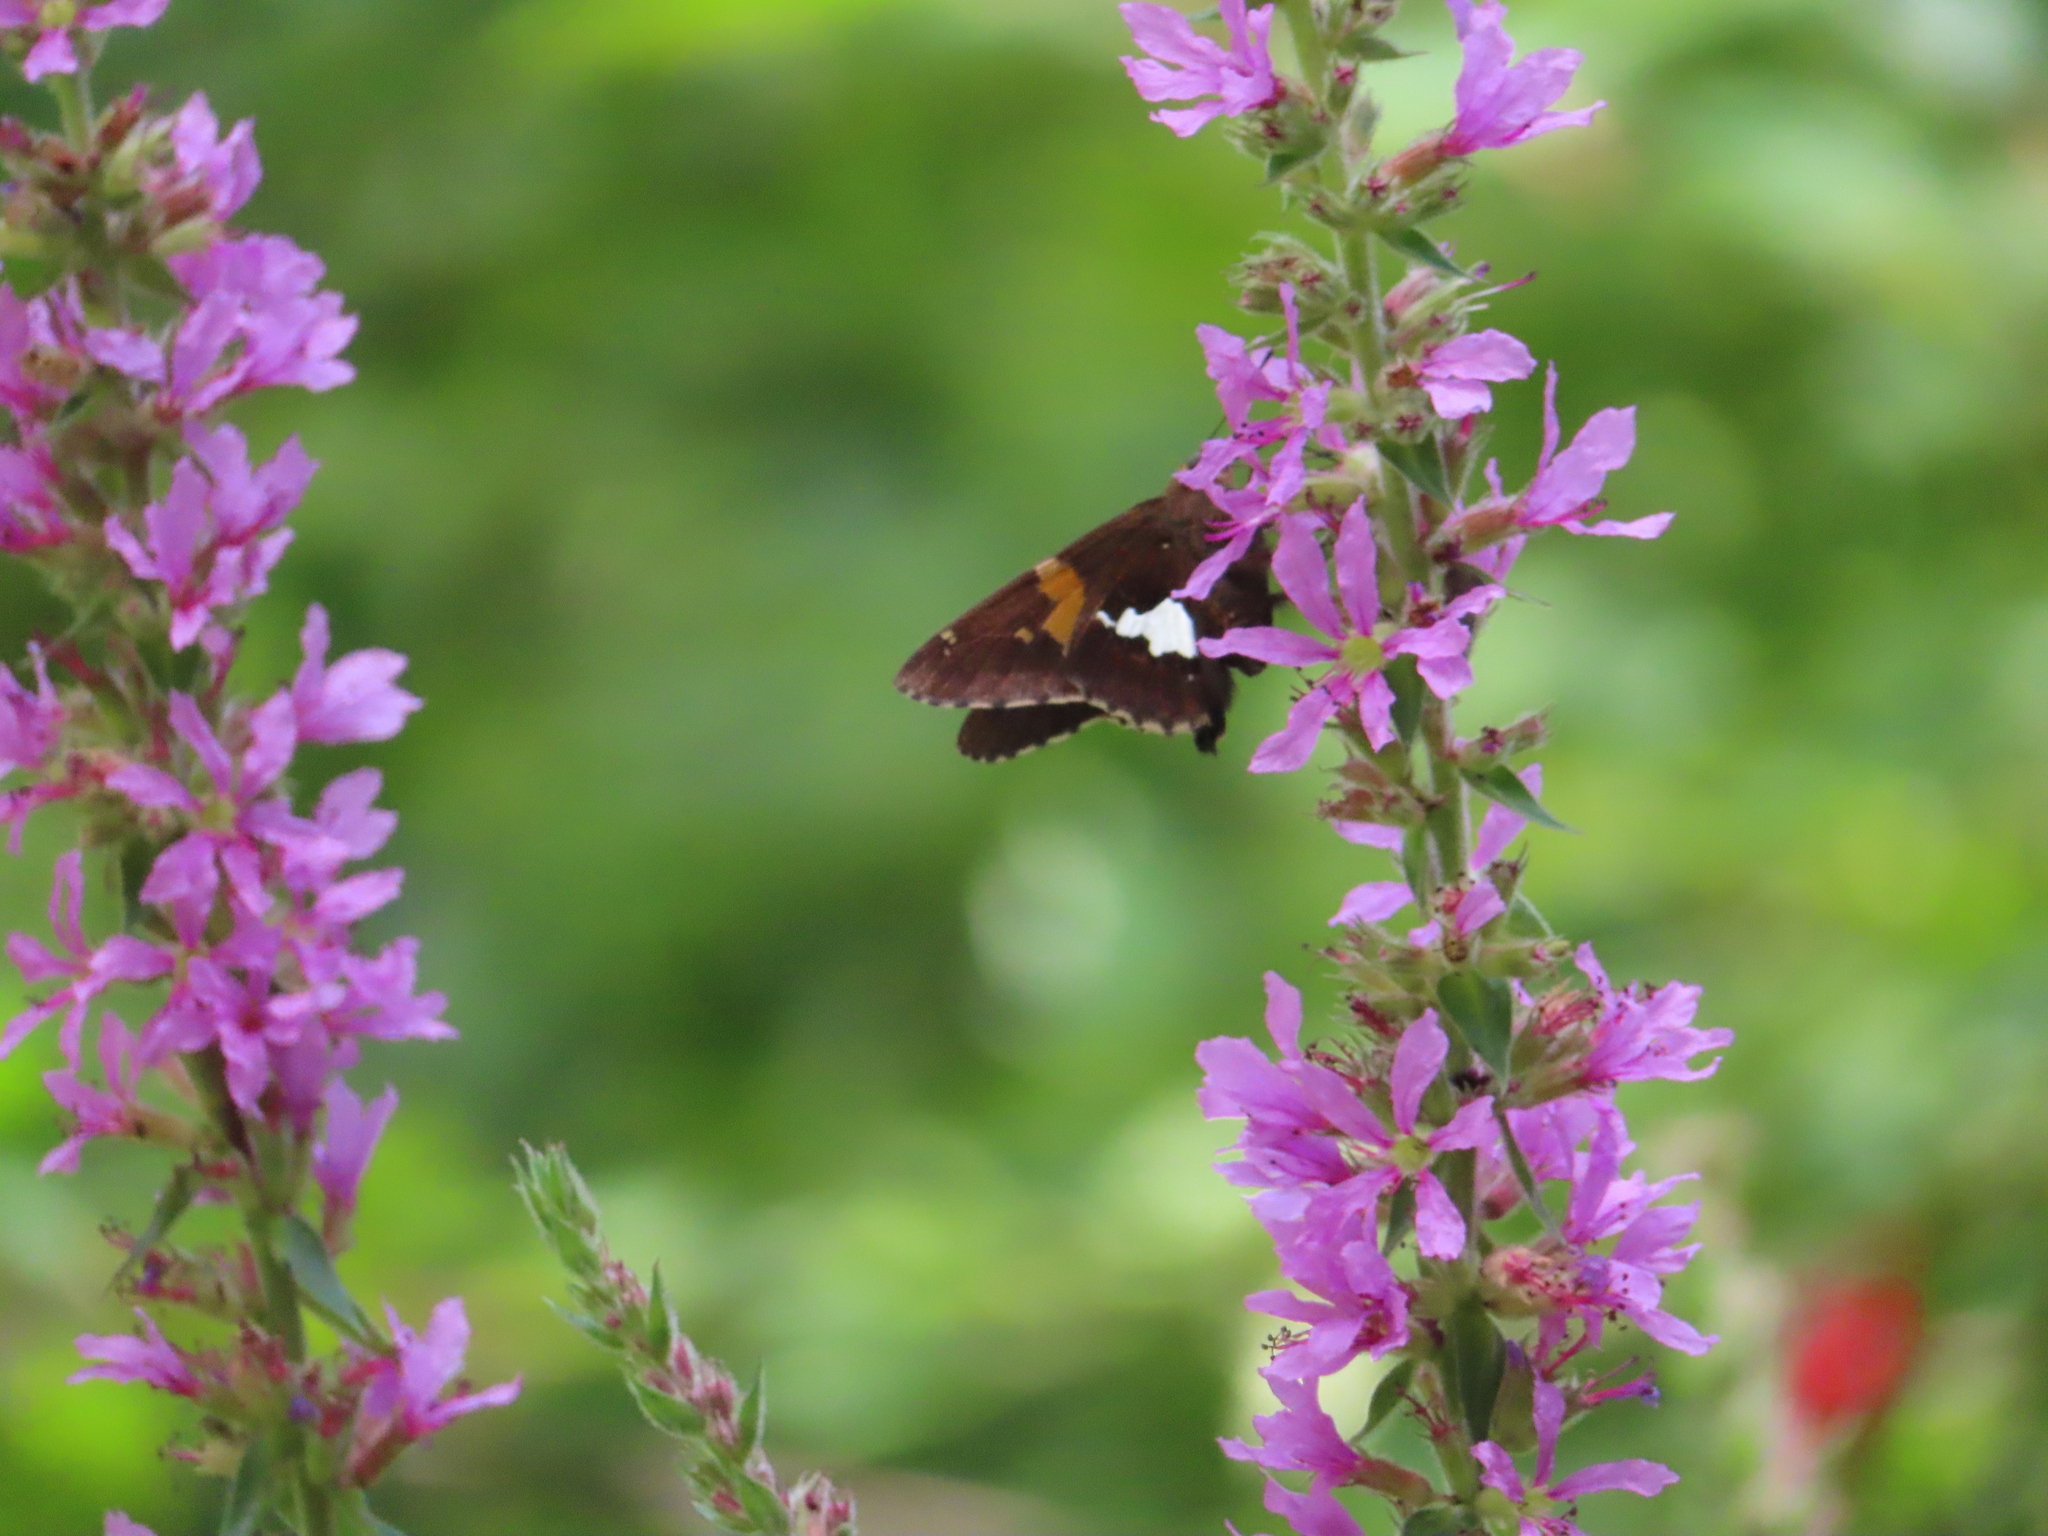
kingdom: Animalia
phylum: Arthropoda
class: Insecta
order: Lepidoptera
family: Hesperiidae
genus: Epargyreus
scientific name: Epargyreus clarus
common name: Silver-spotted skipper
